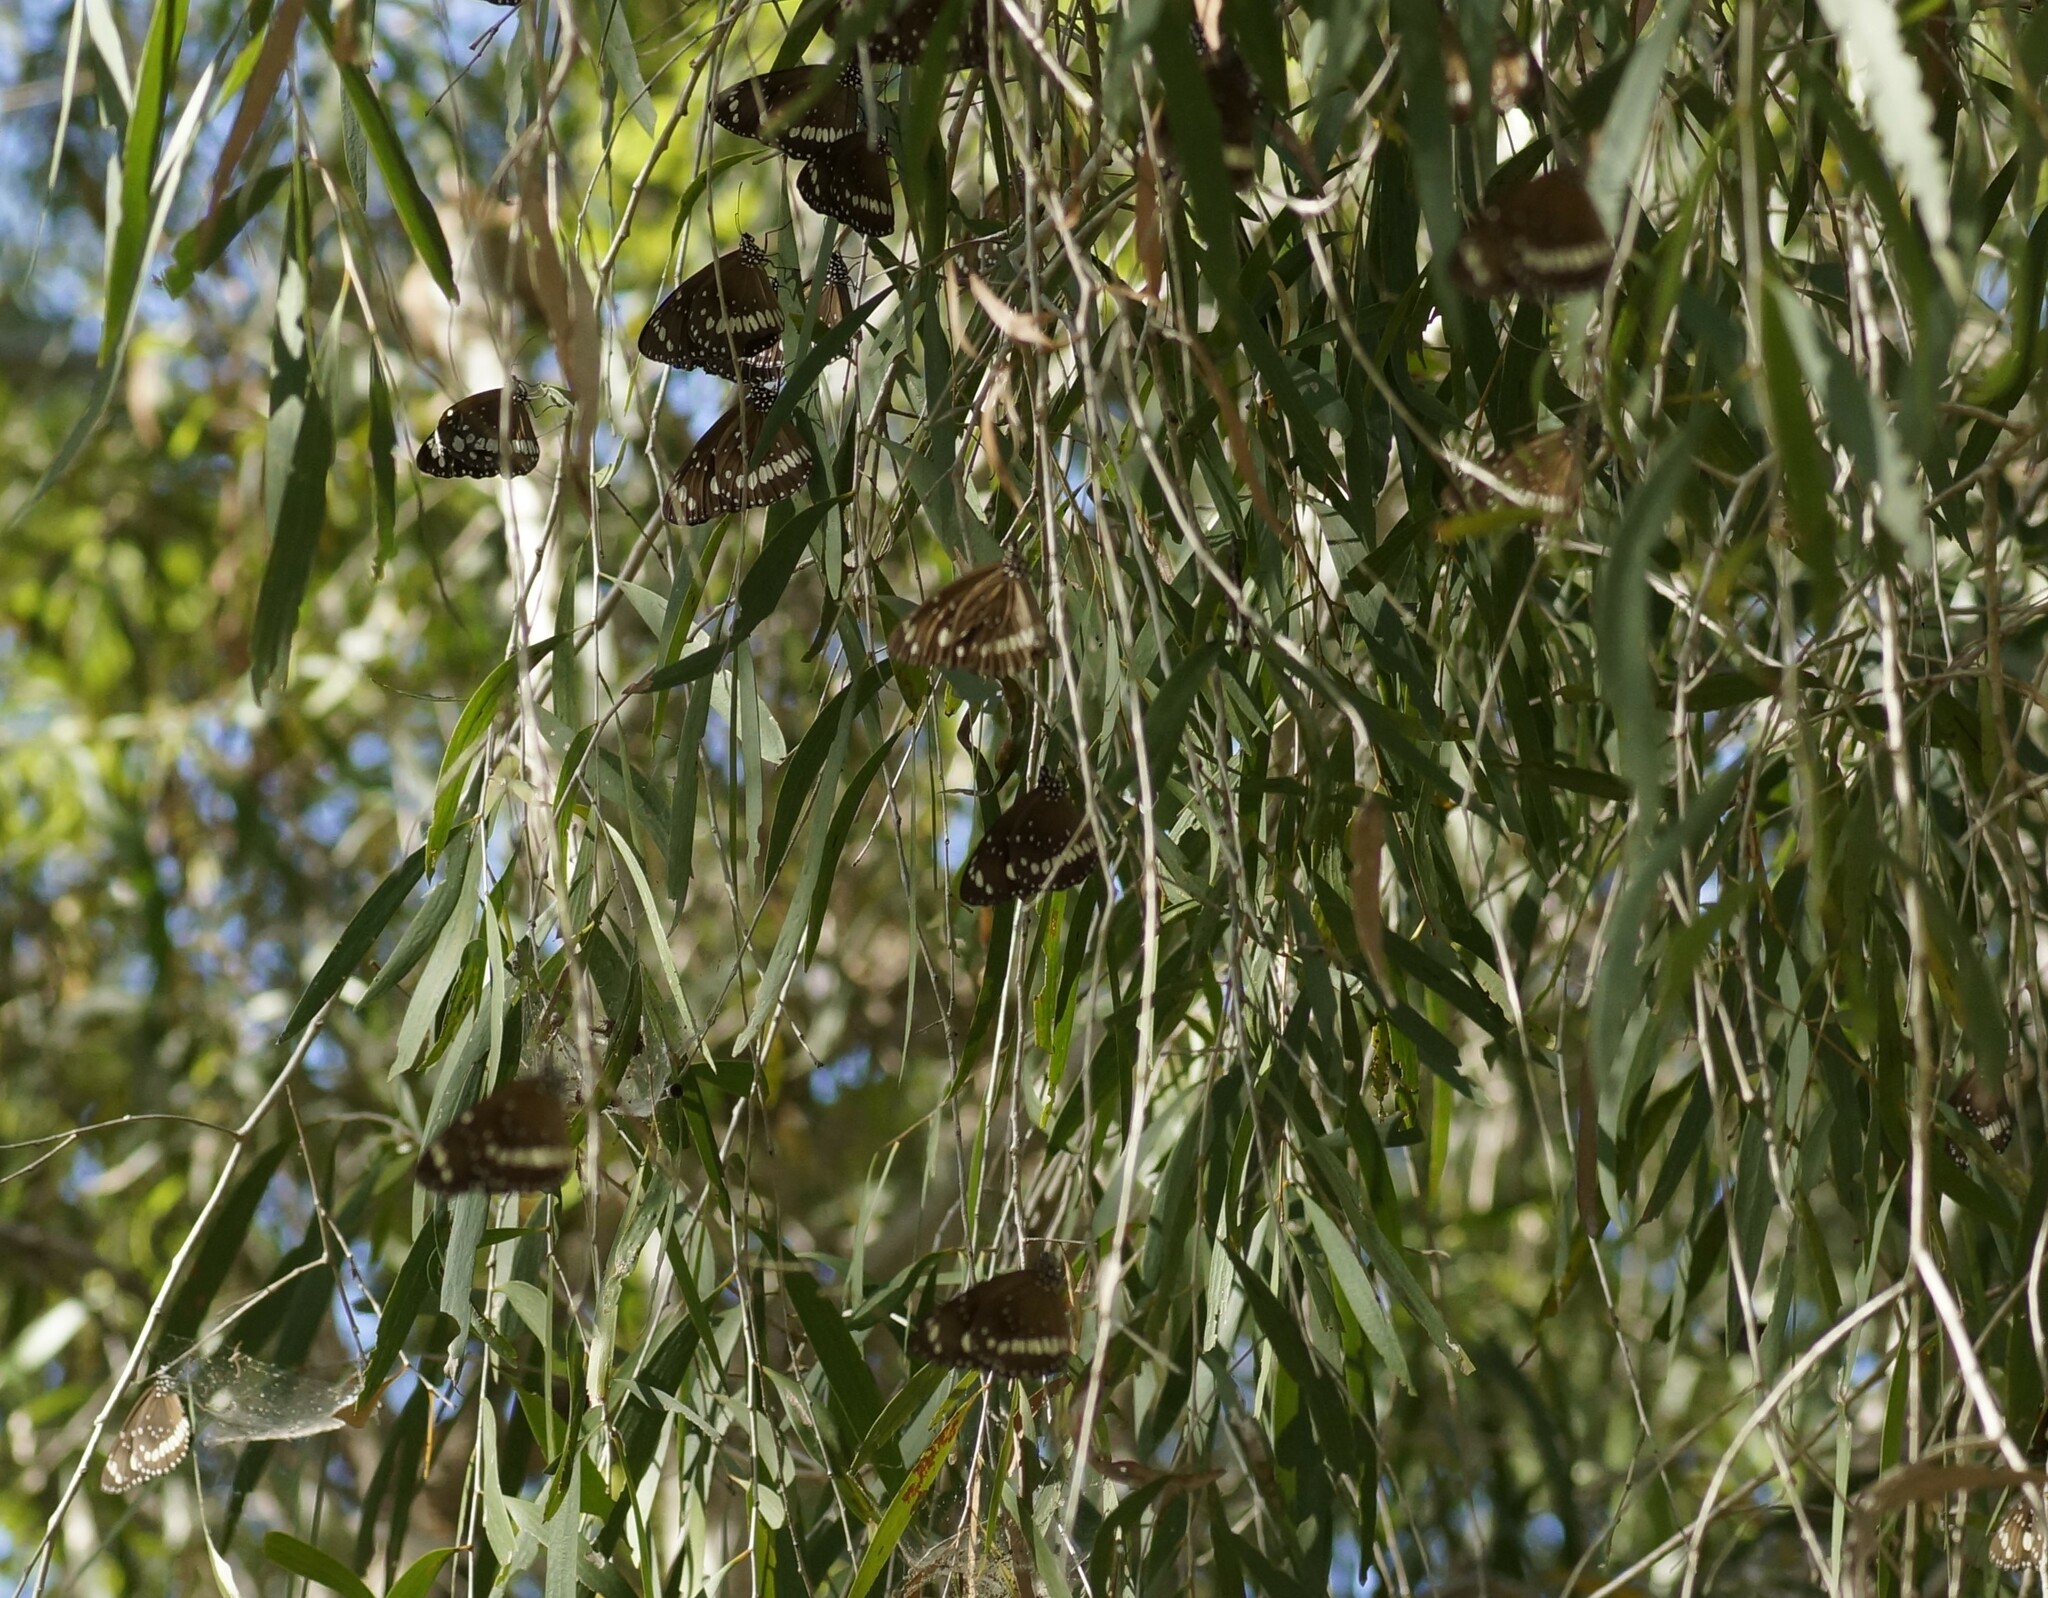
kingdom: Animalia
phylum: Arthropoda
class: Insecta
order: Lepidoptera
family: Nymphalidae
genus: Euploea
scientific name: Euploea core
